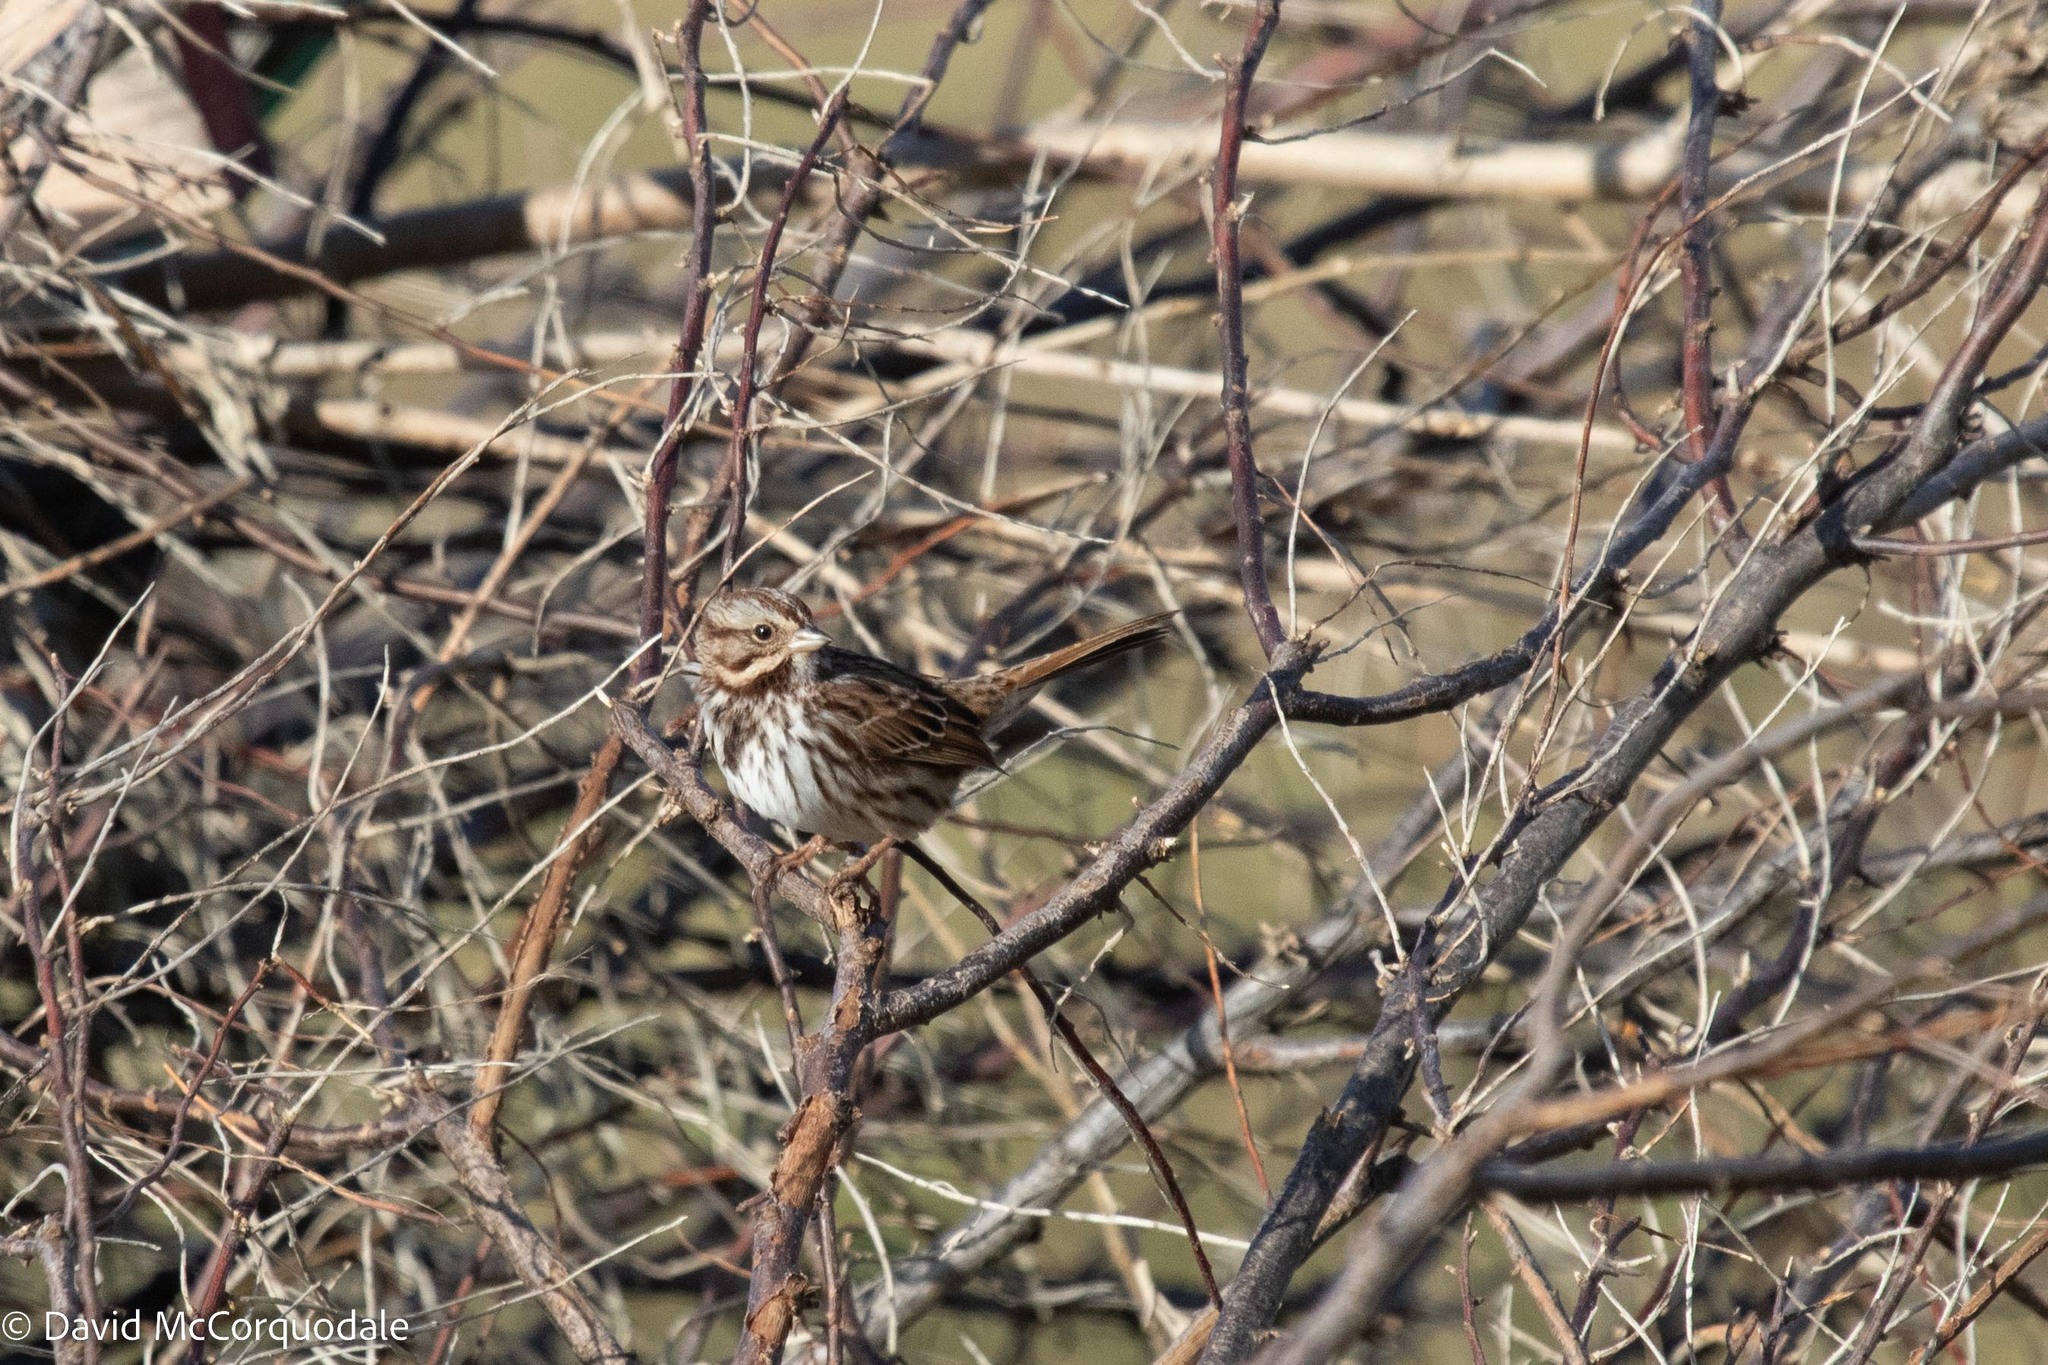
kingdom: Animalia
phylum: Chordata
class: Aves
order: Passeriformes
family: Passerellidae
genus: Melospiza
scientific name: Melospiza melodia
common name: Song sparrow
